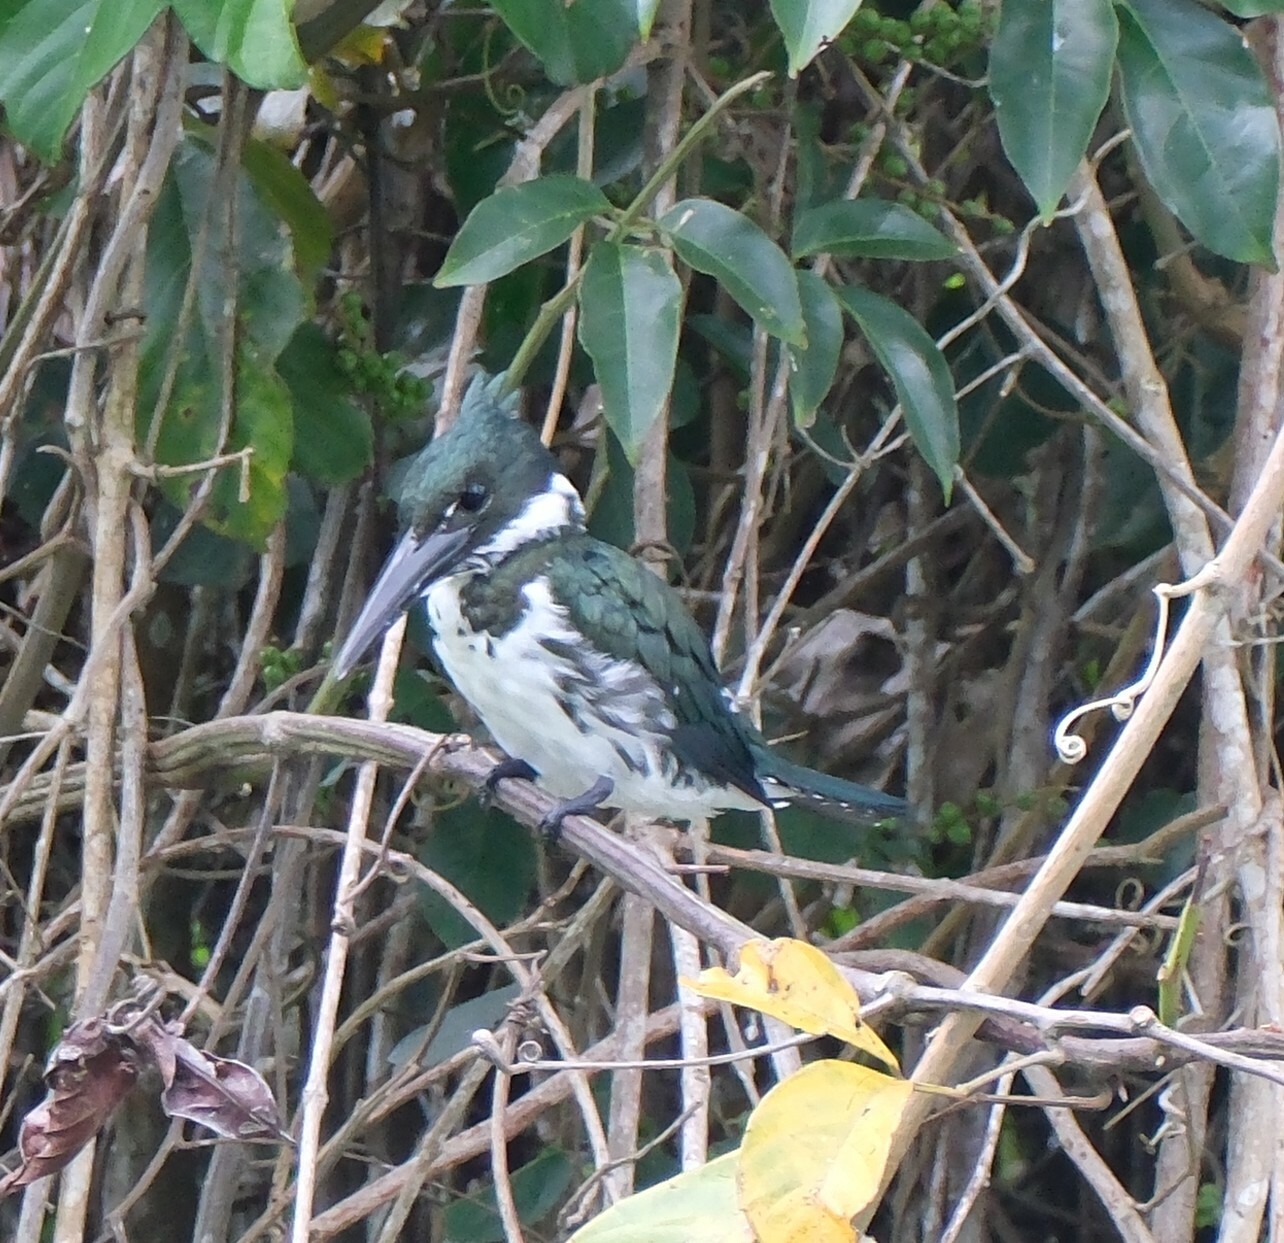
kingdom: Animalia
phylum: Chordata
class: Aves
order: Coraciiformes
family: Alcedinidae
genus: Chloroceryle
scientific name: Chloroceryle amazona
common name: Amazon kingfisher
